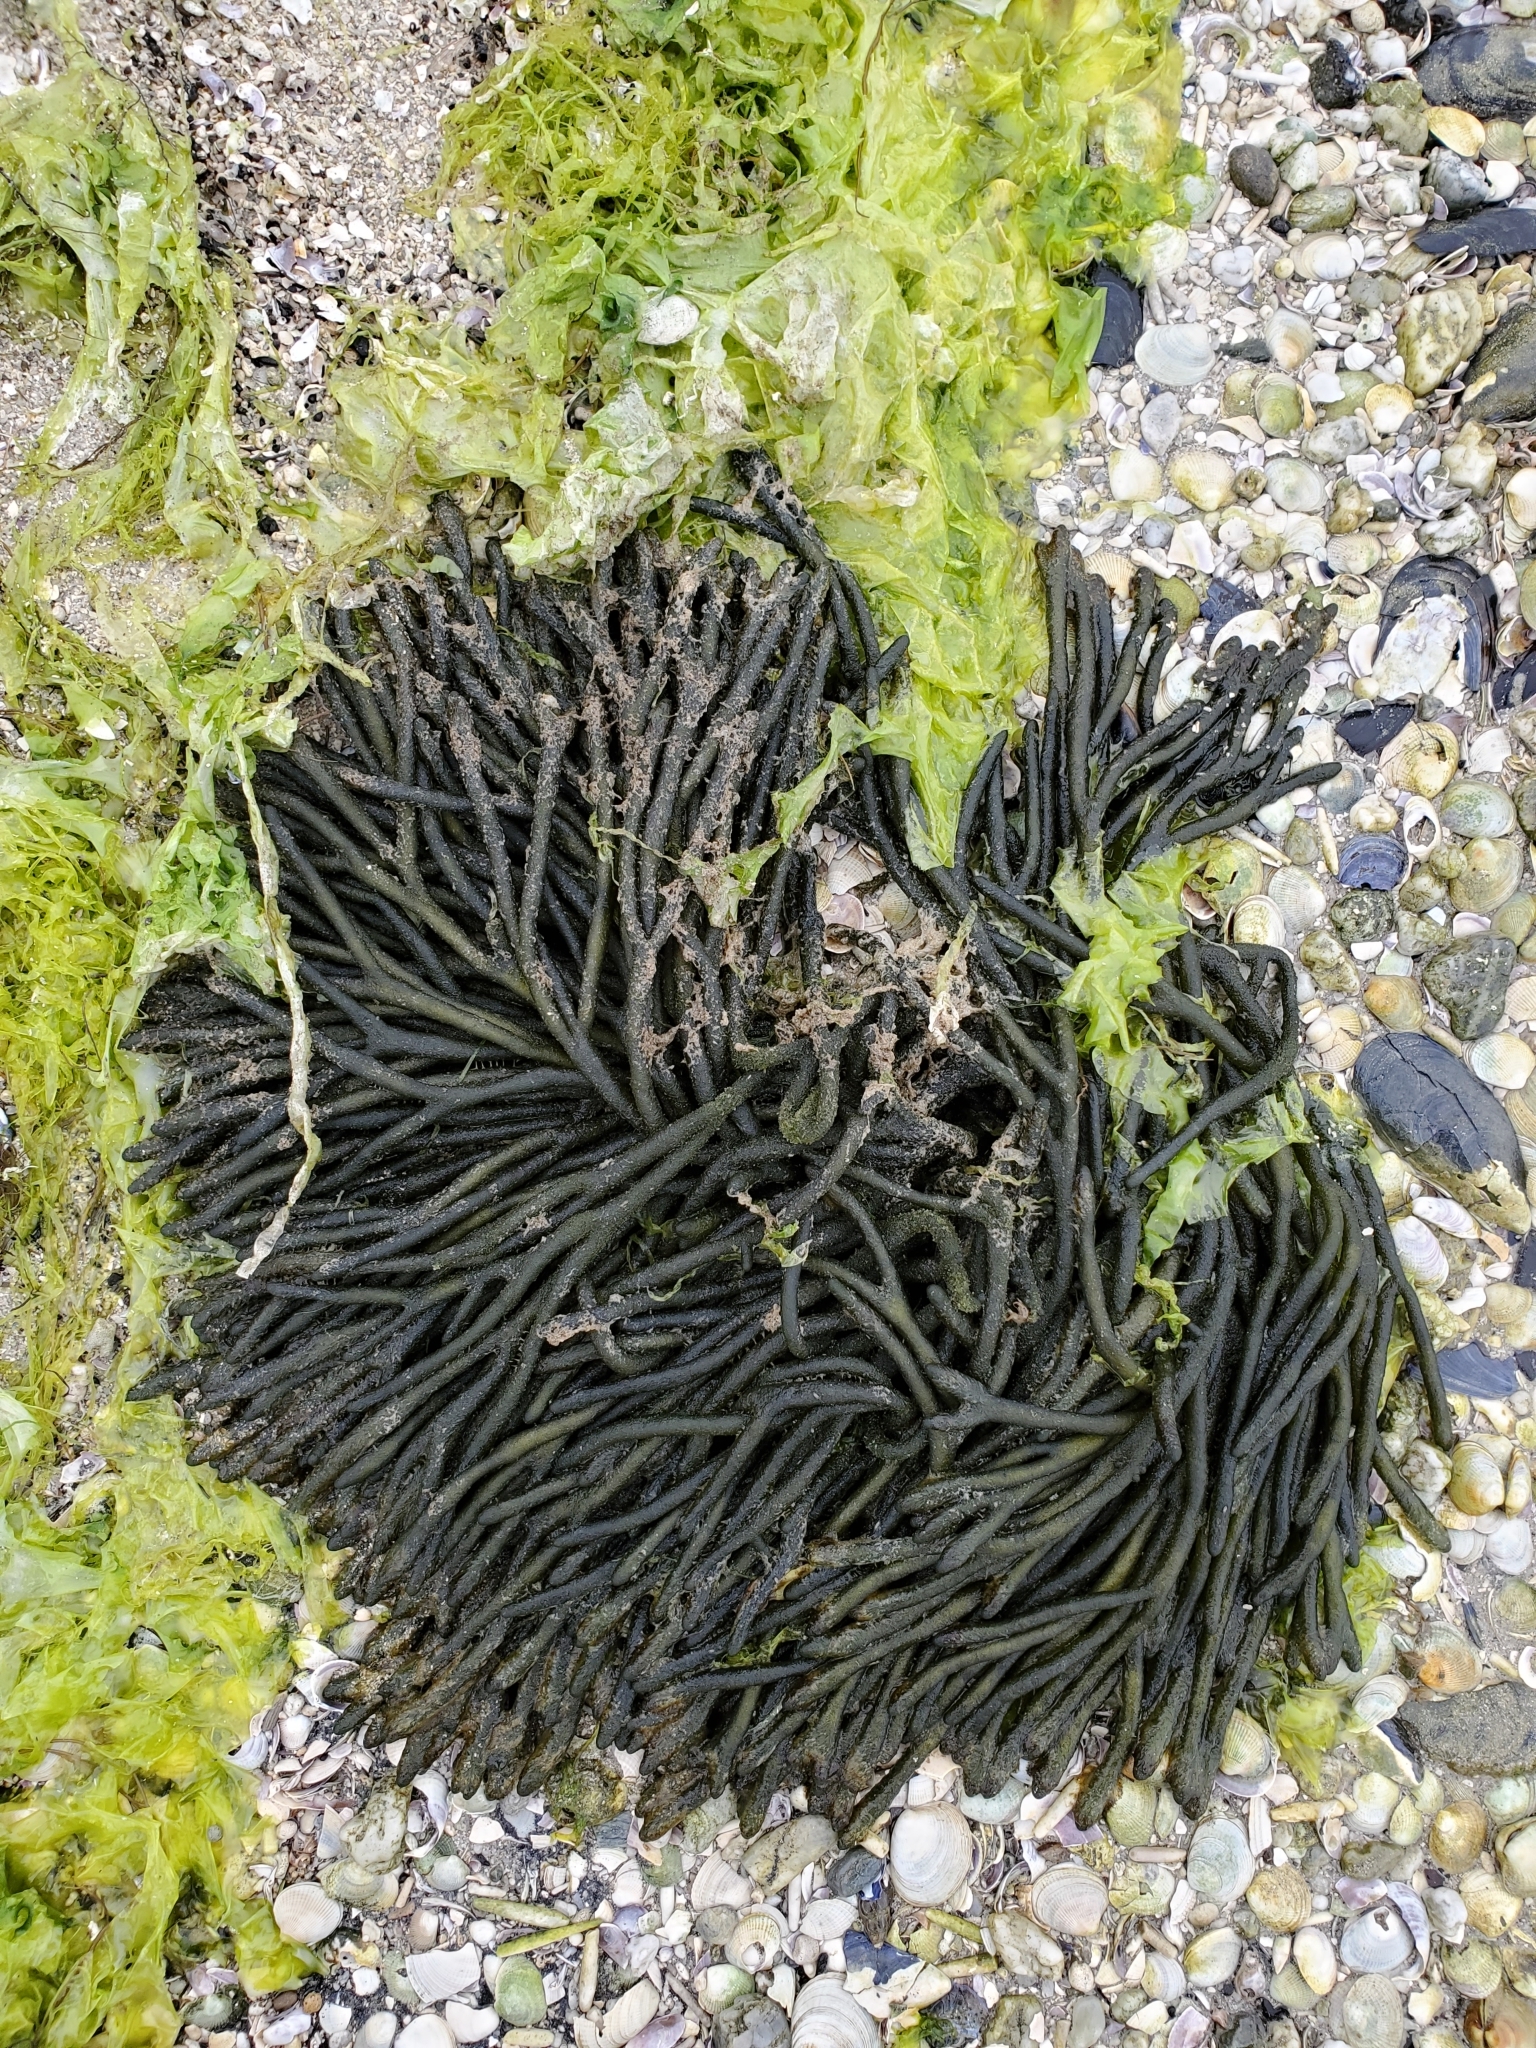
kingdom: Plantae
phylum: Chlorophyta
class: Ulvophyceae
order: Bryopsidales
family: Codiaceae
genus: Codium
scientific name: Codium fragile
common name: Dead man's fingers
